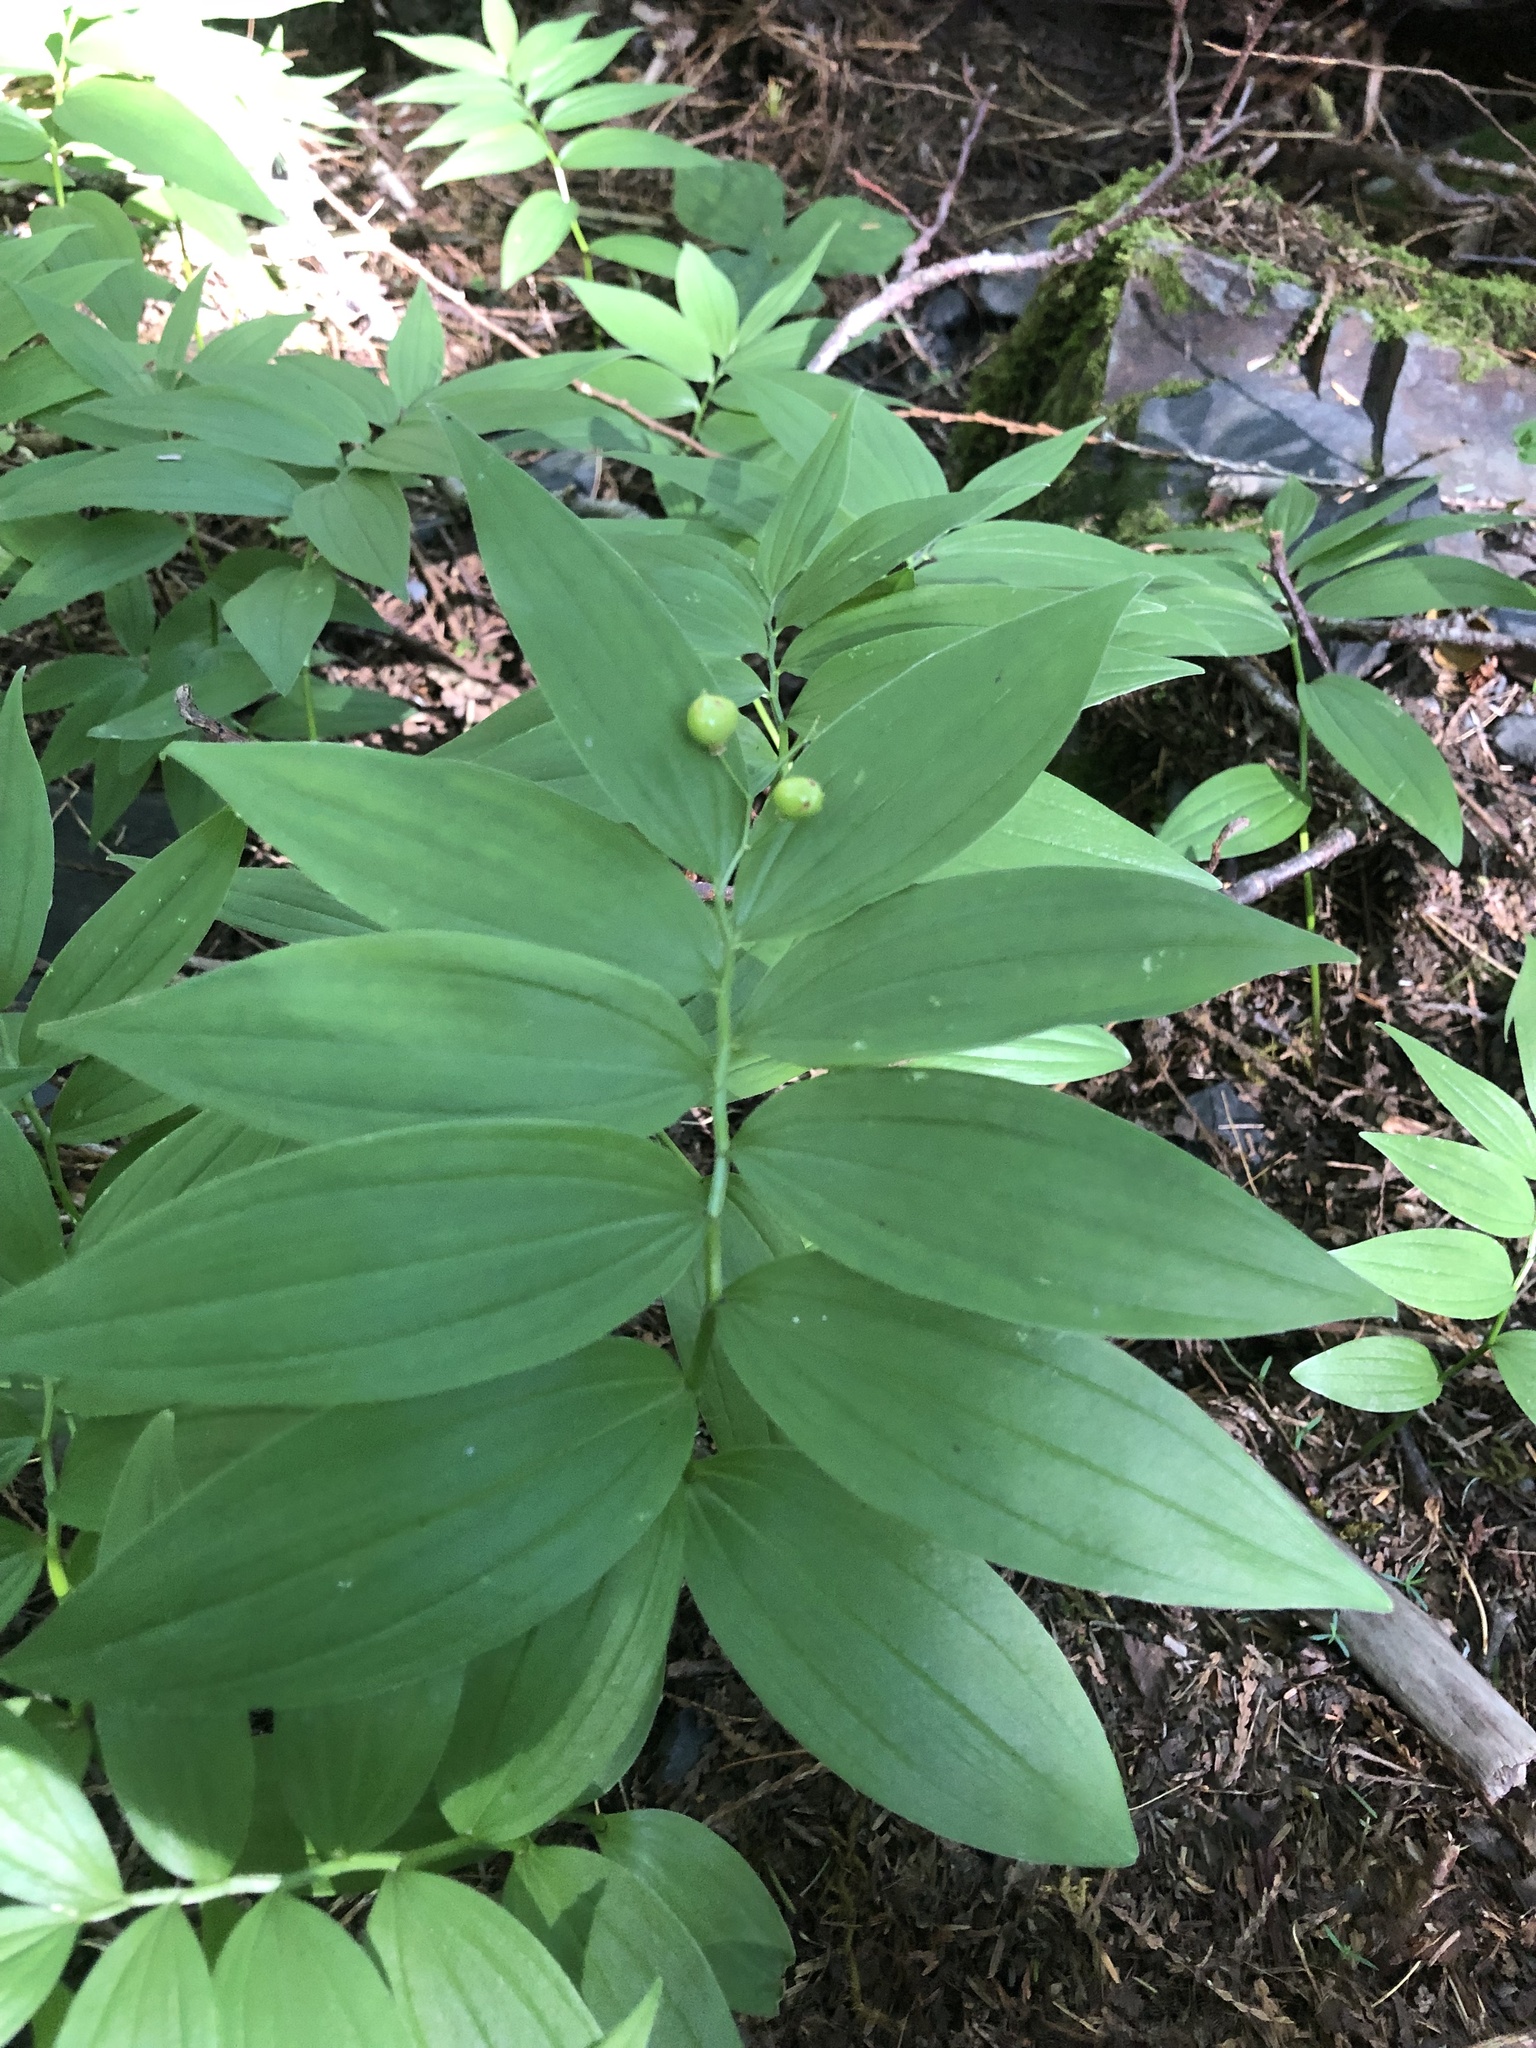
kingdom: Plantae
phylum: Tracheophyta
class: Liliopsida
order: Asparagales
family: Asparagaceae
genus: Maianthemum
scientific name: Maianthemum stellatum
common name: Little false solomon's seal
